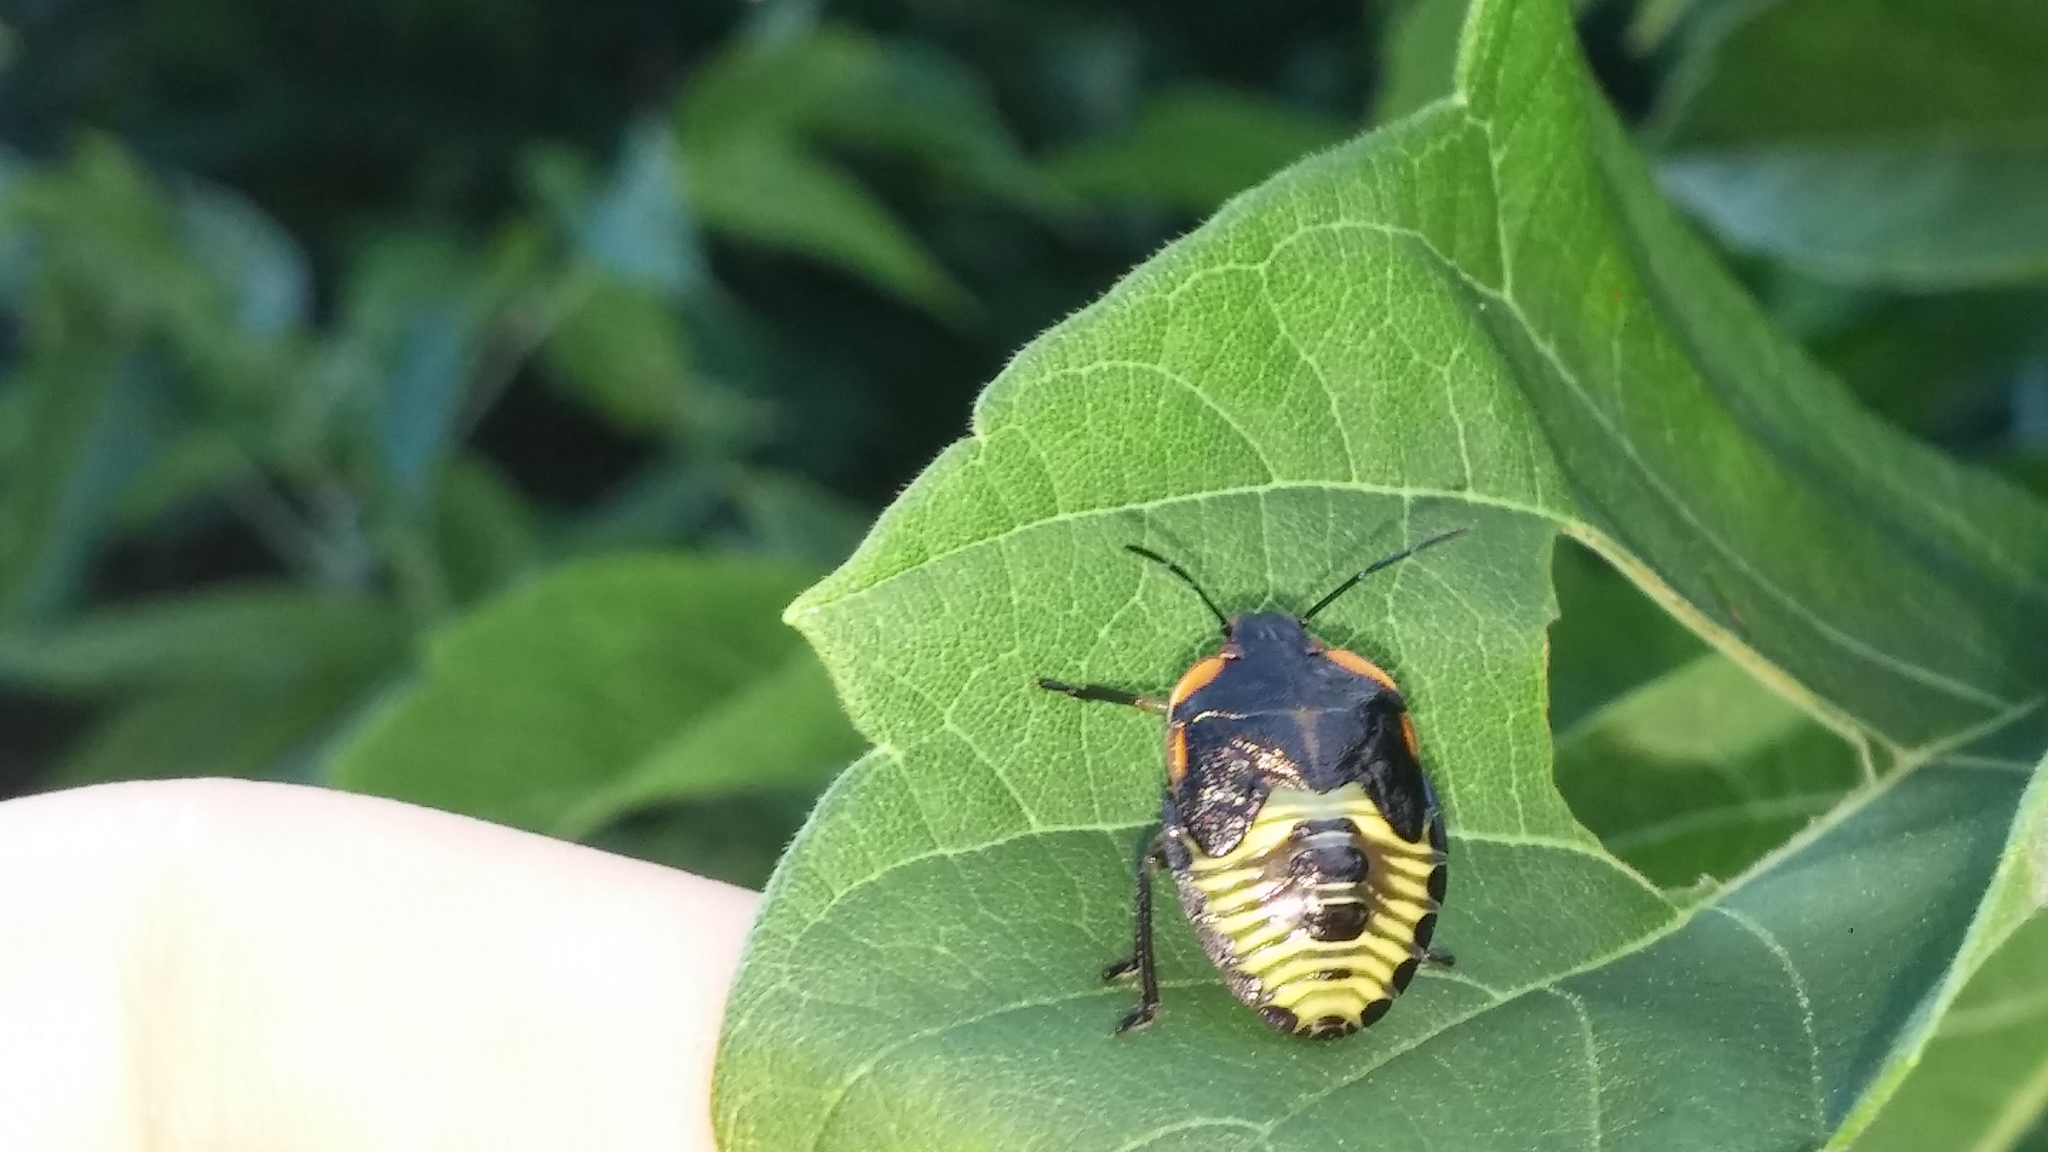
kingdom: Animalia
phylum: Arthropoda
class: Insecta
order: Hemiptera
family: Pentatomidae
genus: Chinavia
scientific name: Chinavia hilaris
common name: Green stink bug
